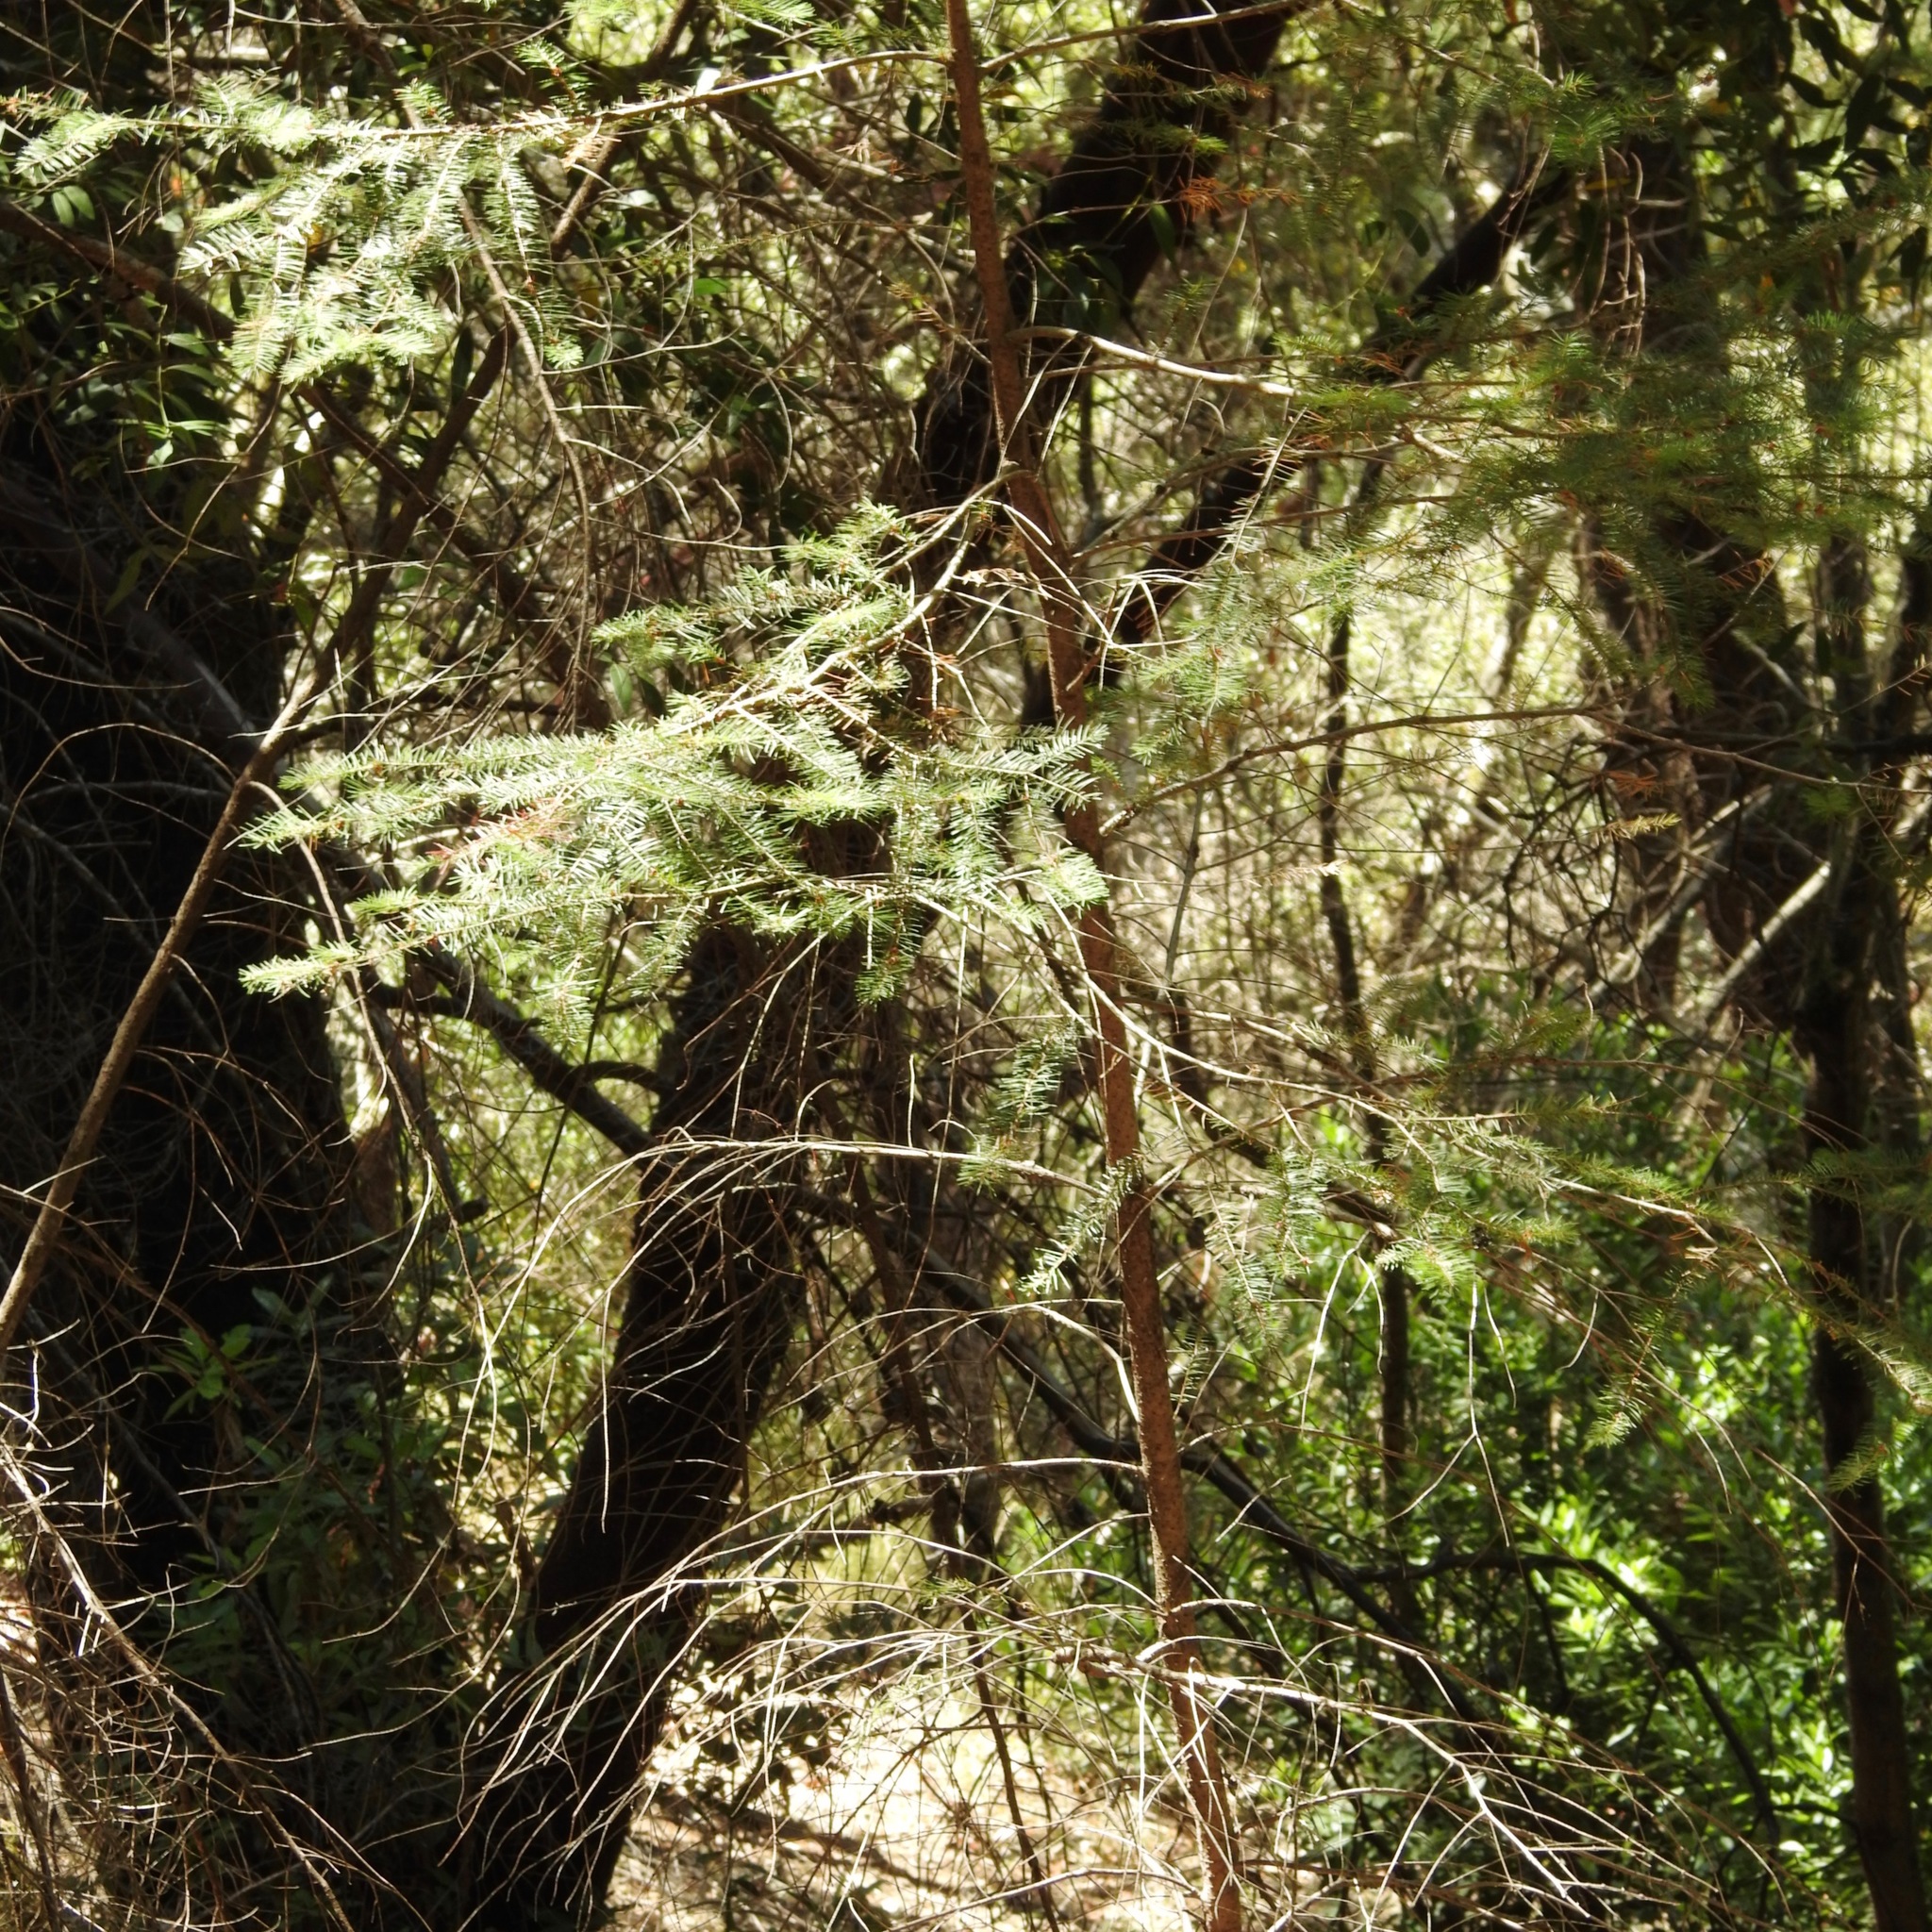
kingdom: Plantae
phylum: Tracheophyta
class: Pinopsida
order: Pinales
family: Pinaceae
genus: Pseudotsuga
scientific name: Pseudotsuga menziesii
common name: Douglas fir
